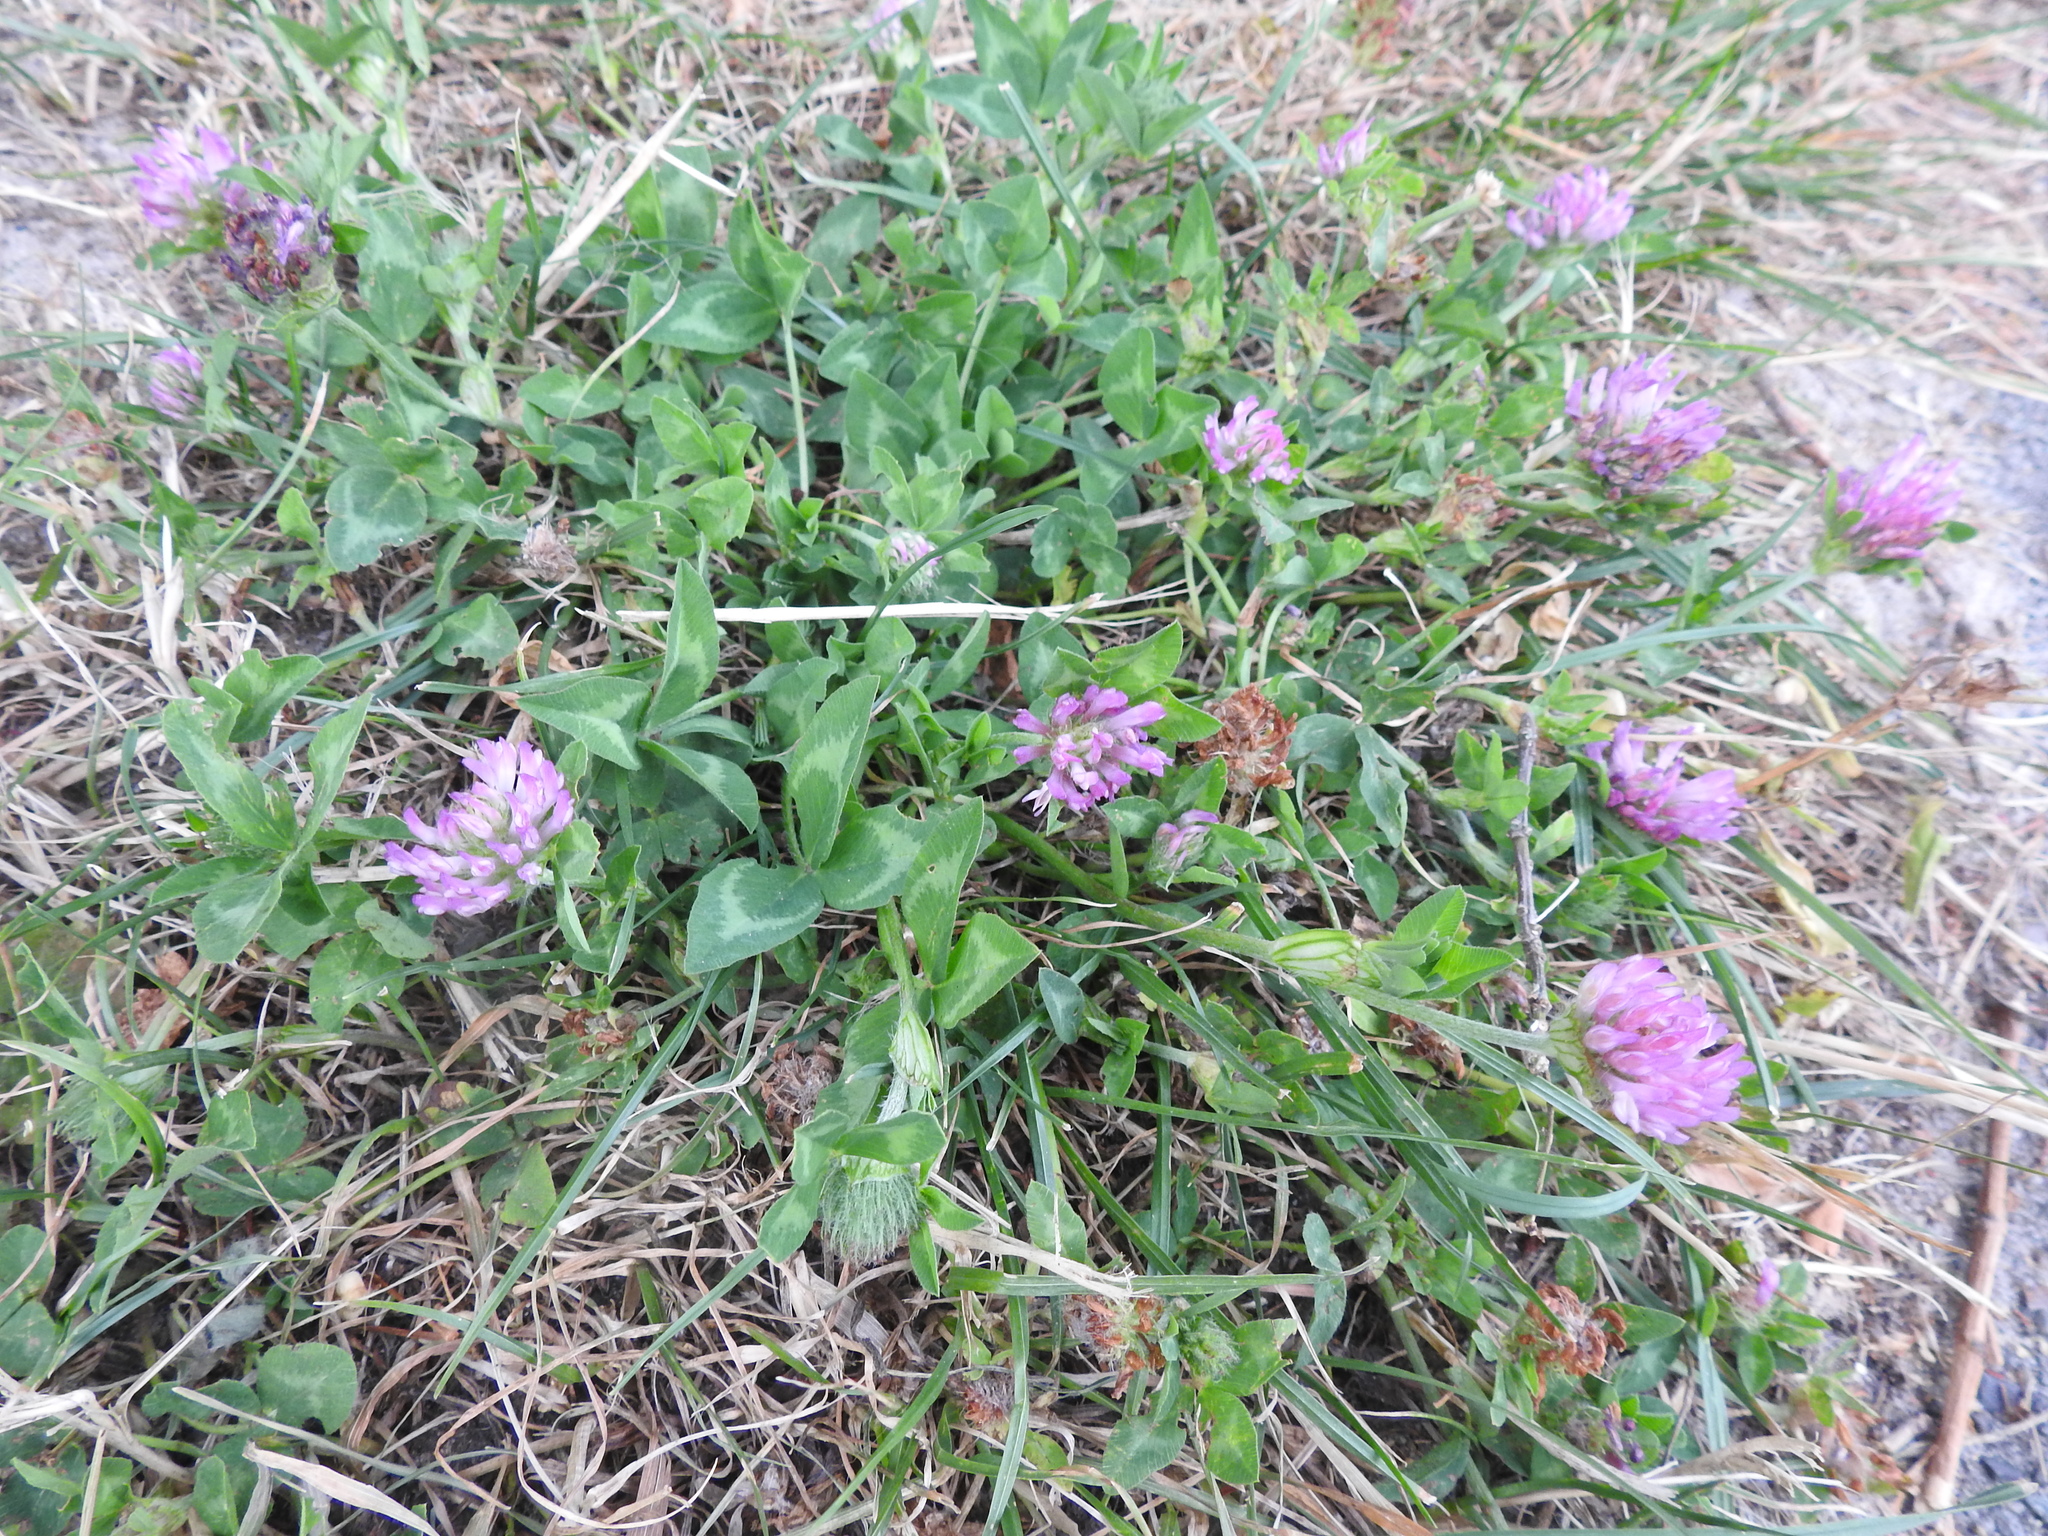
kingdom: Plantae
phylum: Tracheophyta
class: Magnoliopsida
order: Fabales
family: Fabaceae
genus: Trifolium
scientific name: Trifolium pratense
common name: Red clover
